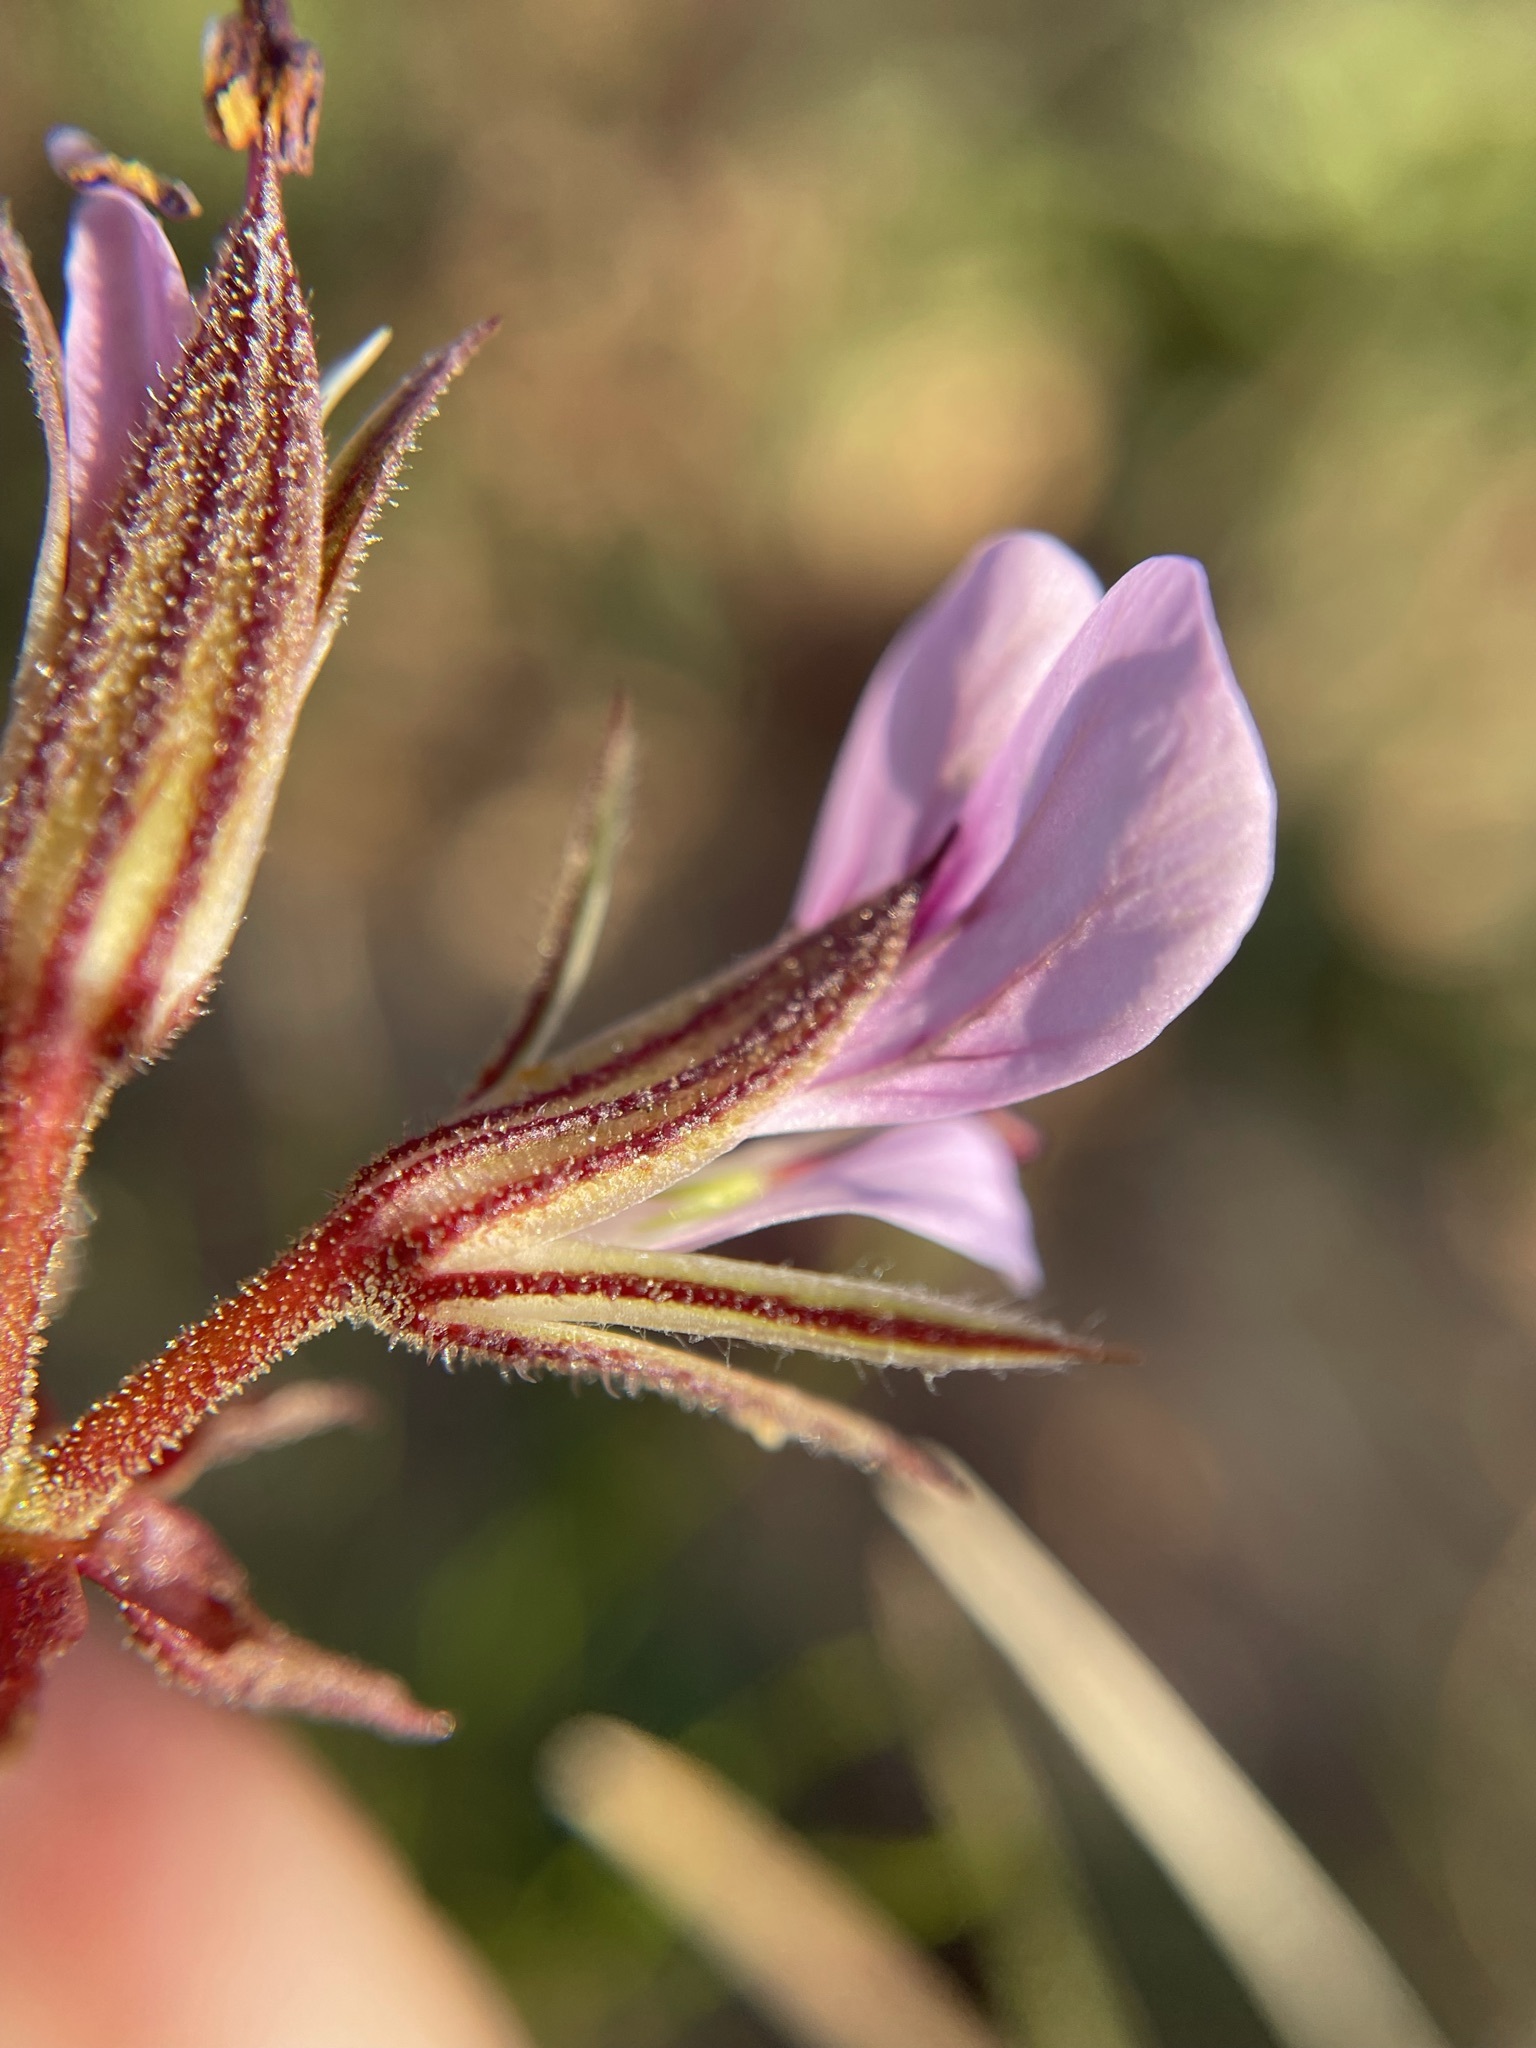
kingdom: Plantae
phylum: Tracheophyta
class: Magnoliopsida
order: Geraniales
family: Geraniaceae
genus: Pelargonium
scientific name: Pelargonium myrrhifolium
